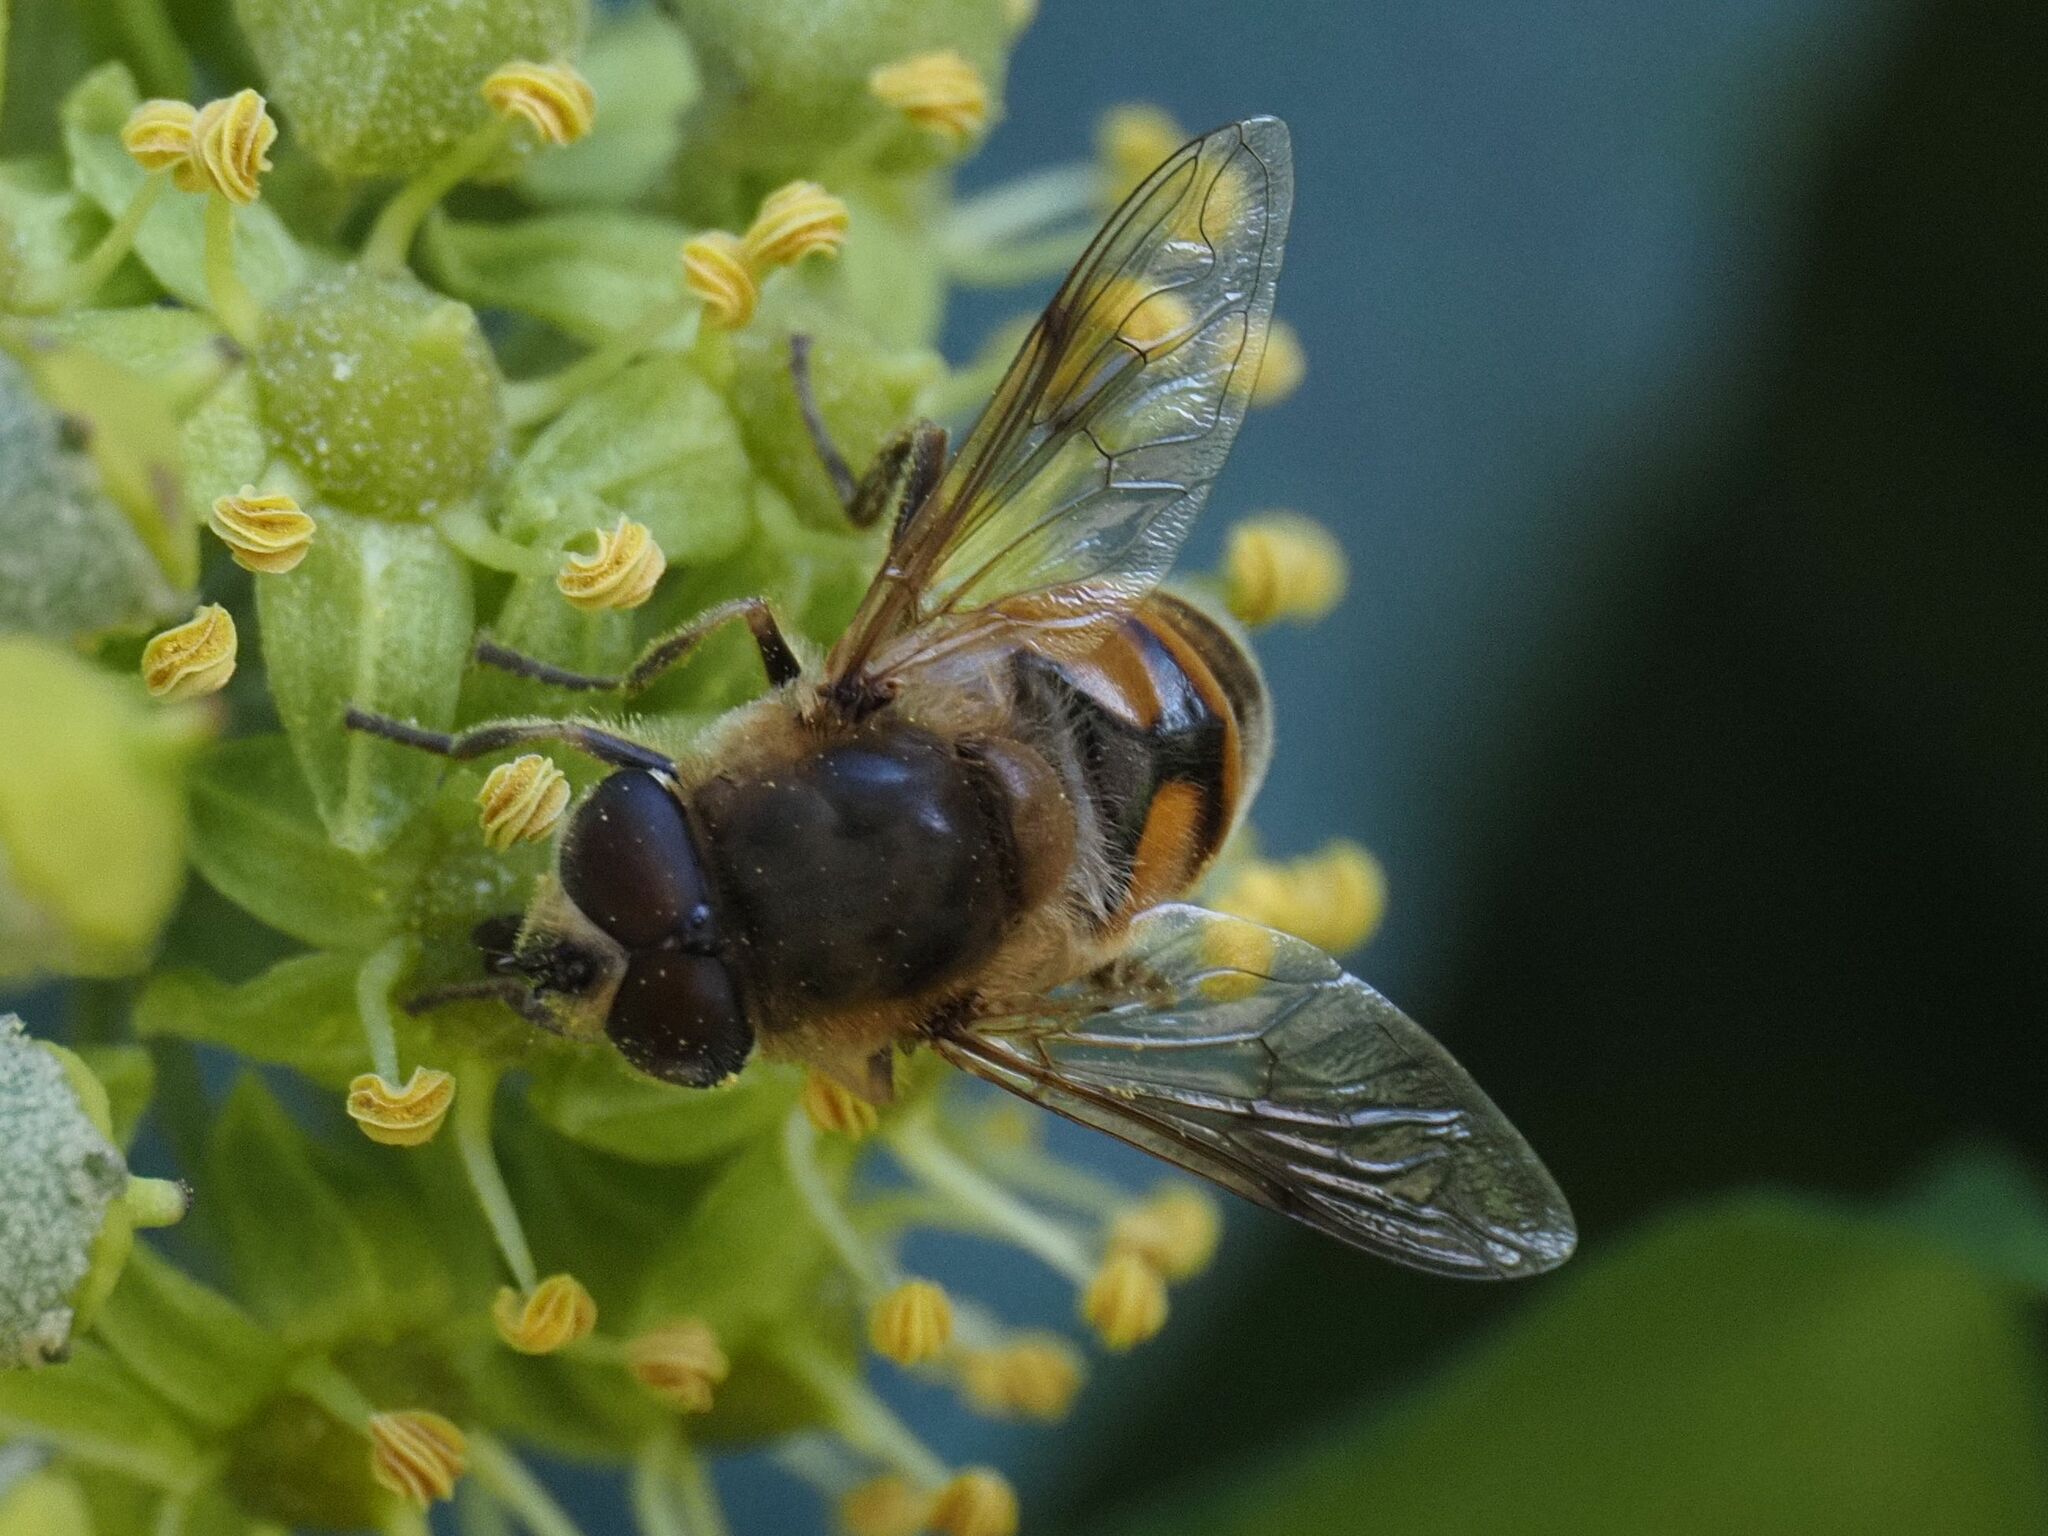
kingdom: Animalia
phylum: Arthropoda
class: Insecta
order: Diptera
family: Syrphidae
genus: Eristalis
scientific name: Eristalis tenax
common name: Drone fly
